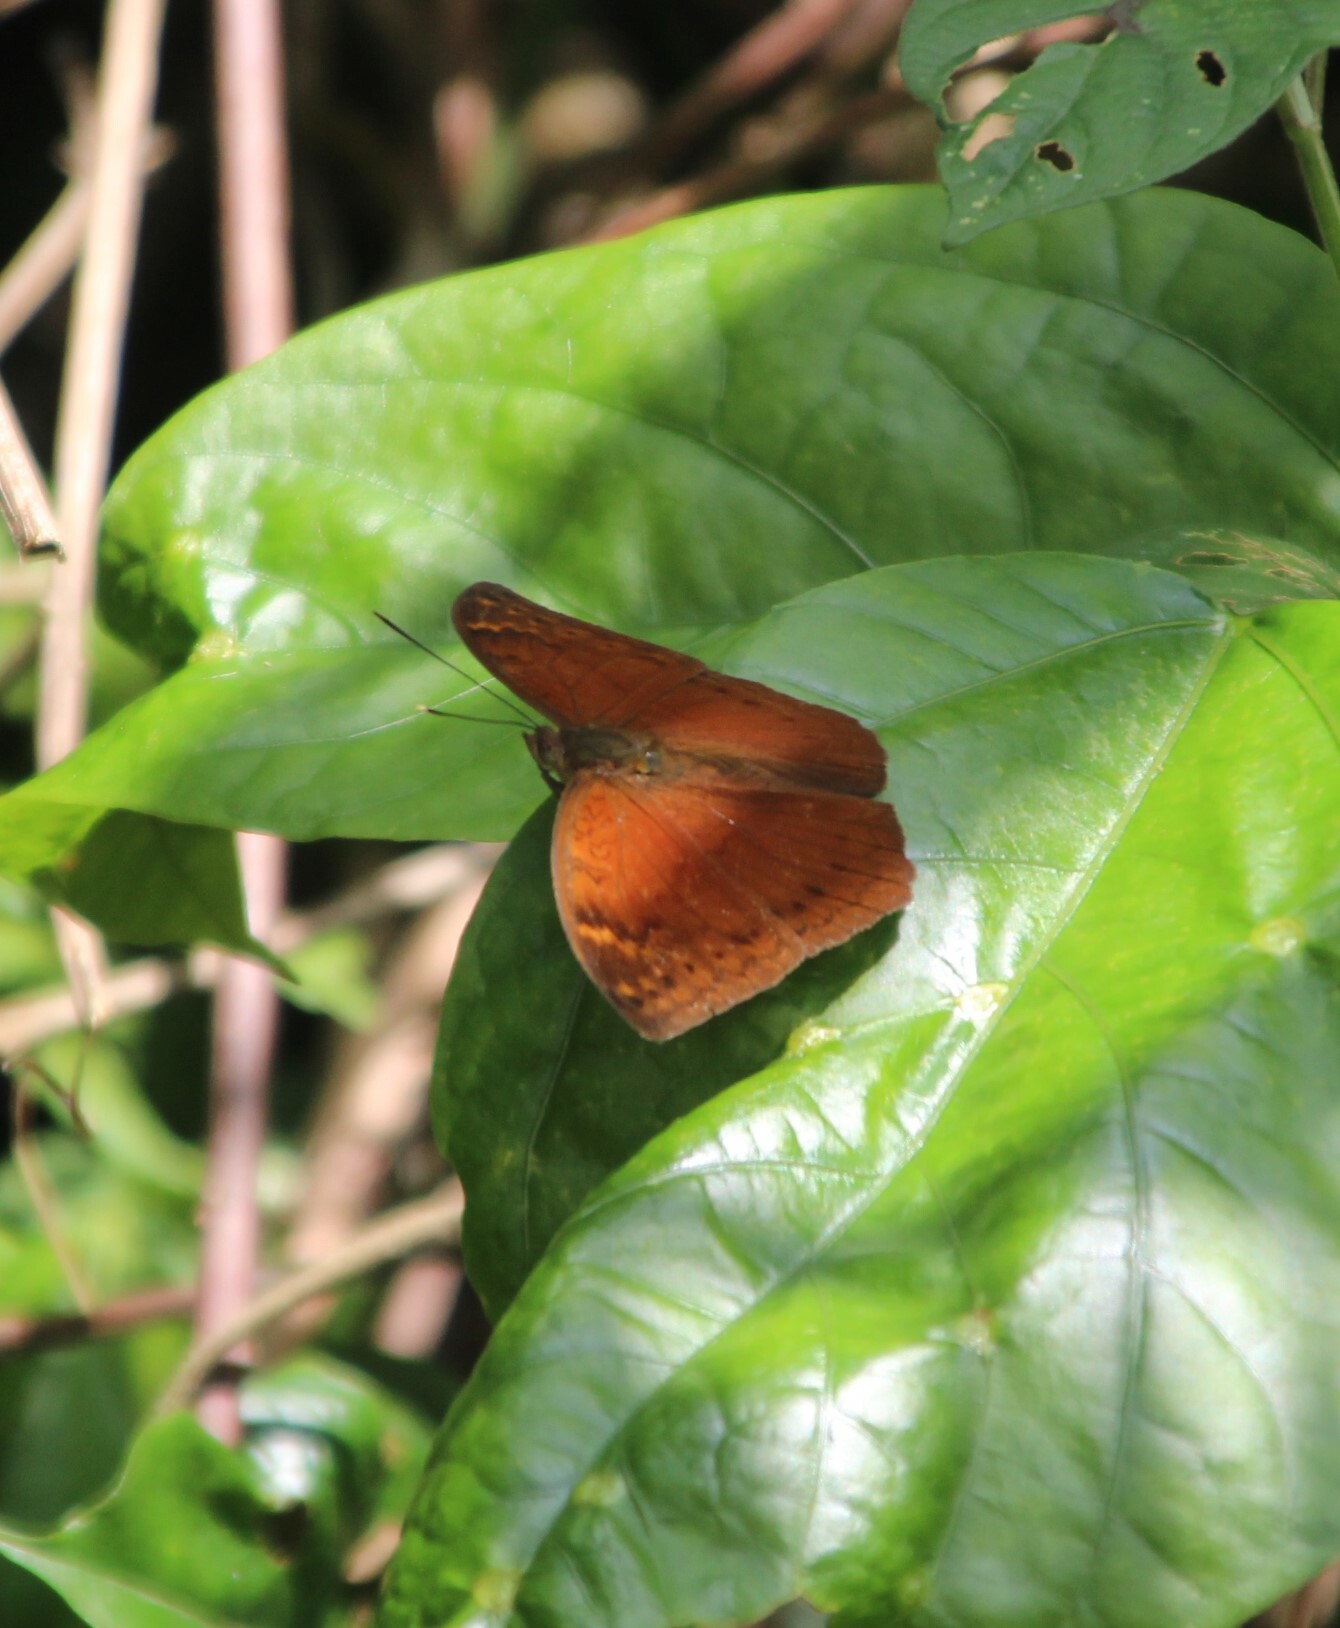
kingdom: Animalia
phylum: Arthropoda
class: Insecta
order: Lepidoptera
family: Nymphalidae
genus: Bebearia
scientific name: Bebearia cocalia
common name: Common palm forester
